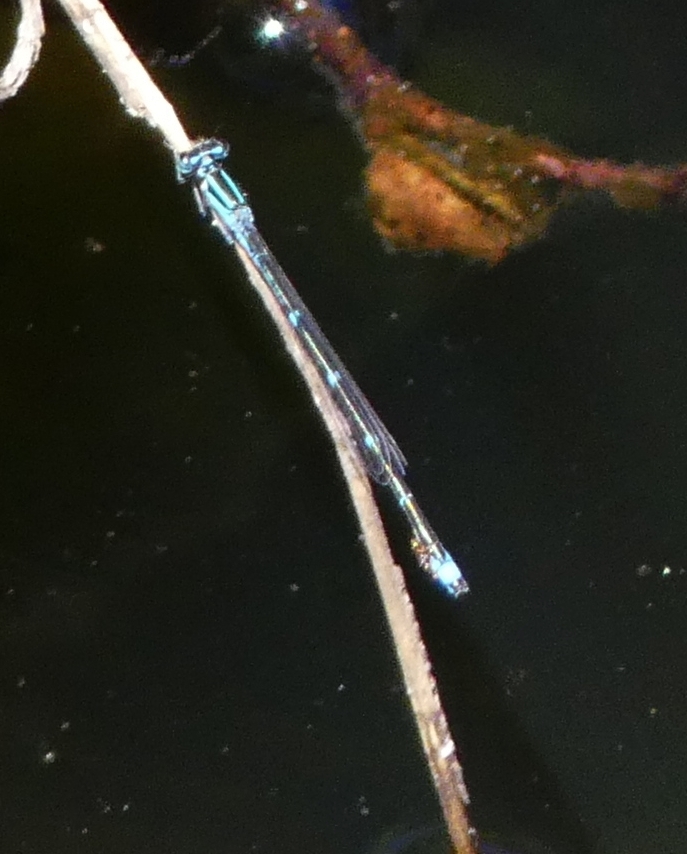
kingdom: Animalia
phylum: Arthropoda
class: Insecta
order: Odonata
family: Coenagrionidae
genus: Enallagma
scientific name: Enallagma exsulans
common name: Stream bluet
